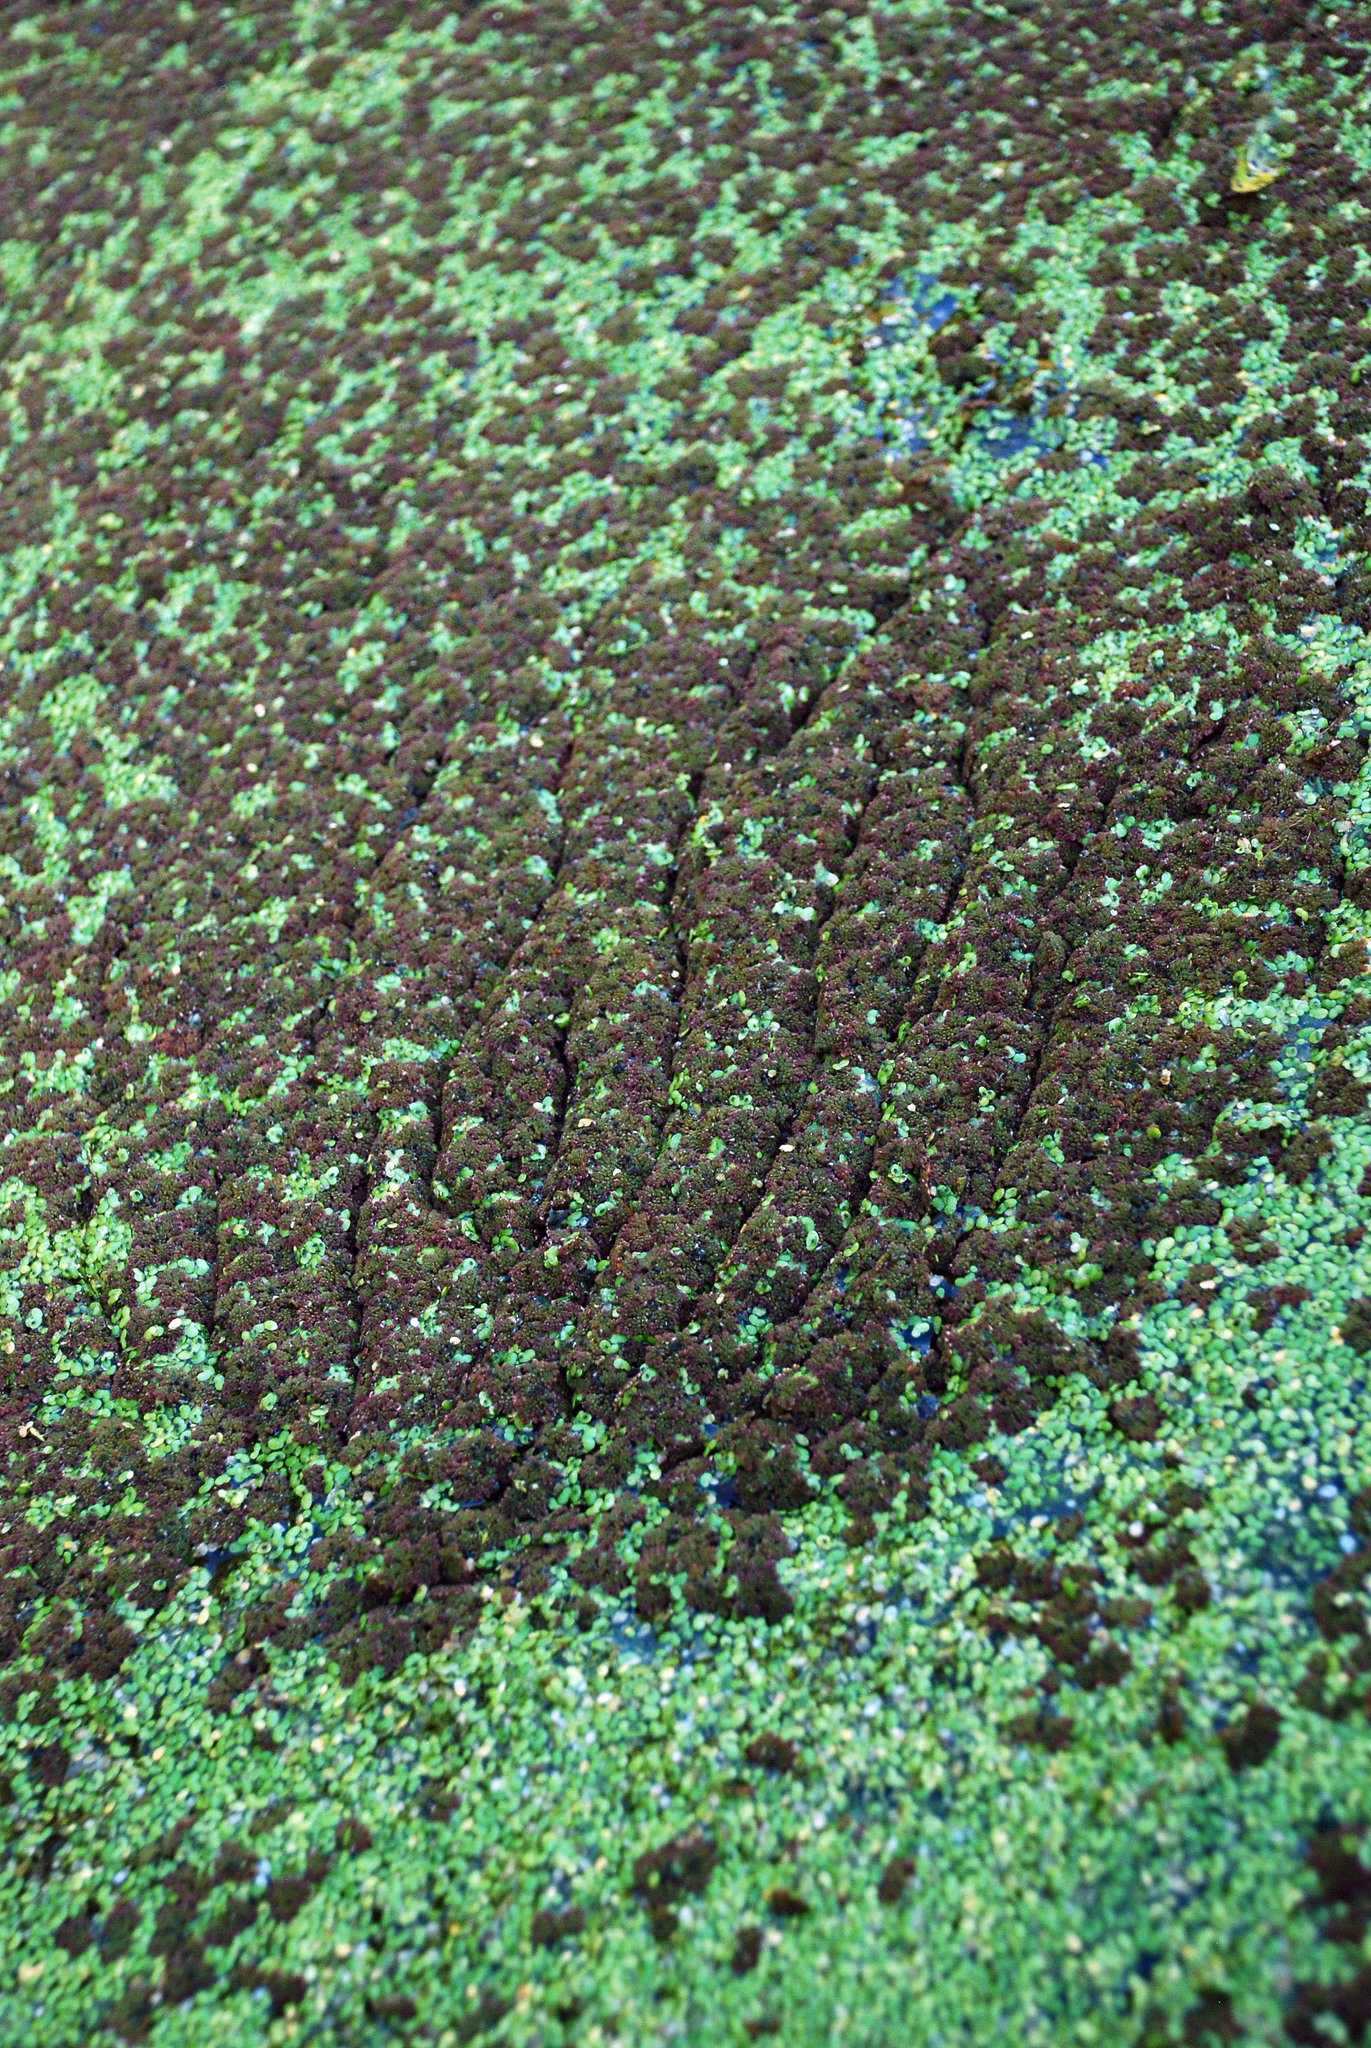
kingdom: Plantae
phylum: Tracheophyta
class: Polypodiopsida
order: Salviniales
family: Salviniaceae
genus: Azolla
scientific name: Azolla caroliniana
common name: Carolina mosquitofern
